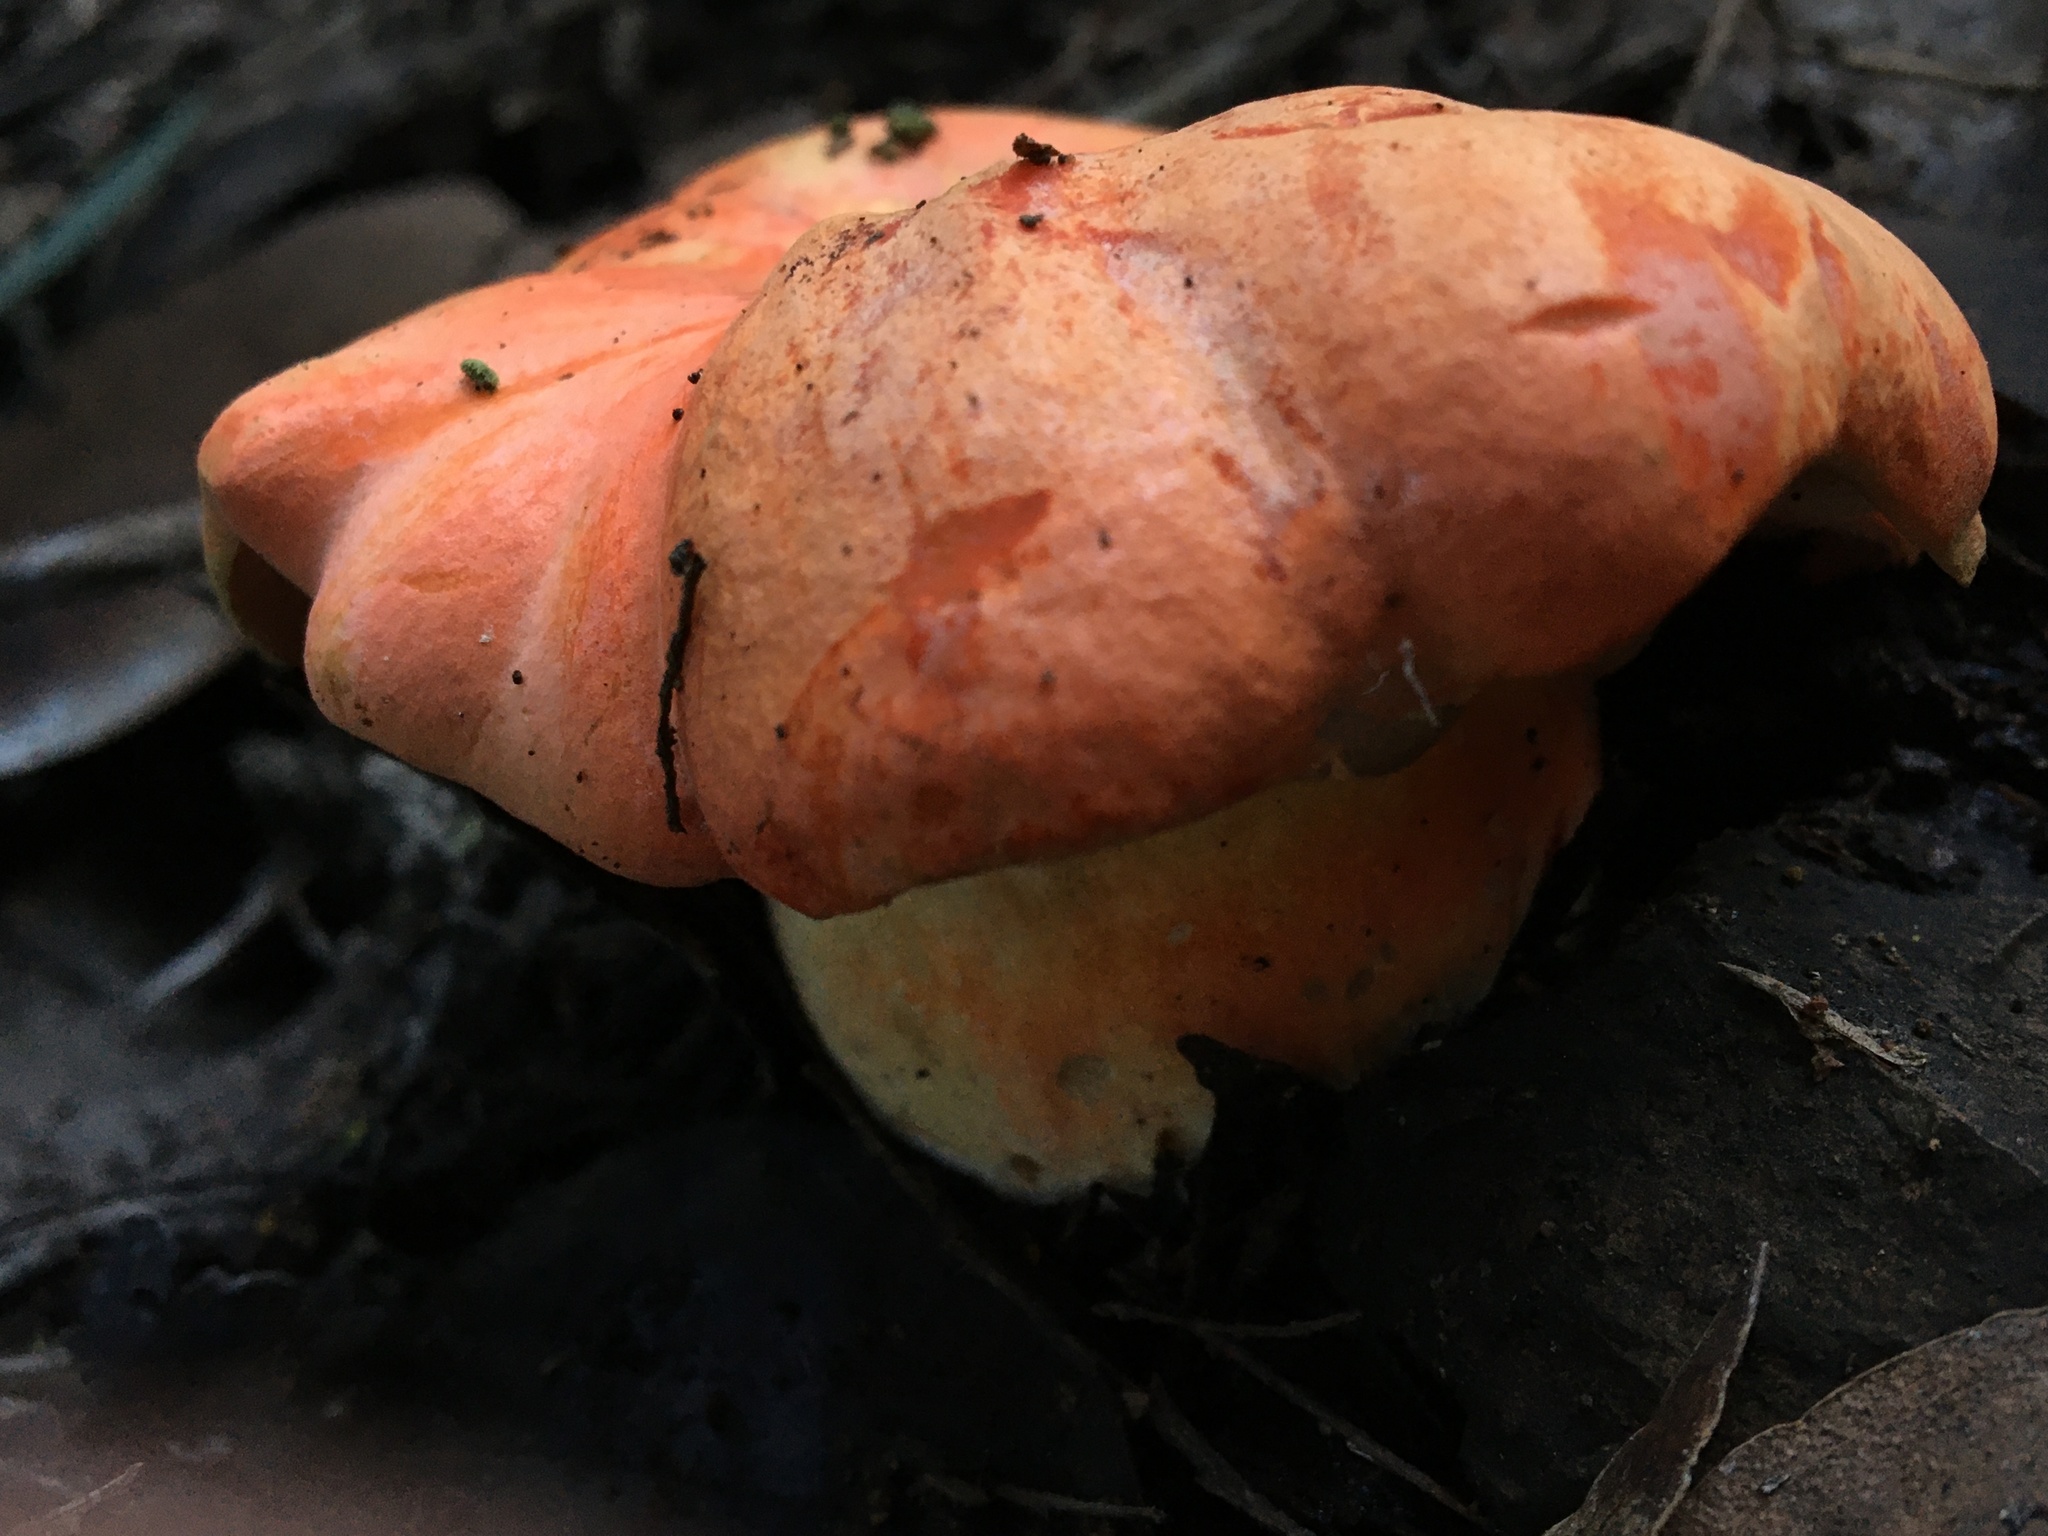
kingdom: Fungi
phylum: Basidiomycota
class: Agaricomycetes
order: Boletales
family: Boletaceae
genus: Tylopilus
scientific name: Tylopilus balloui
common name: Burnt-orange bolete
